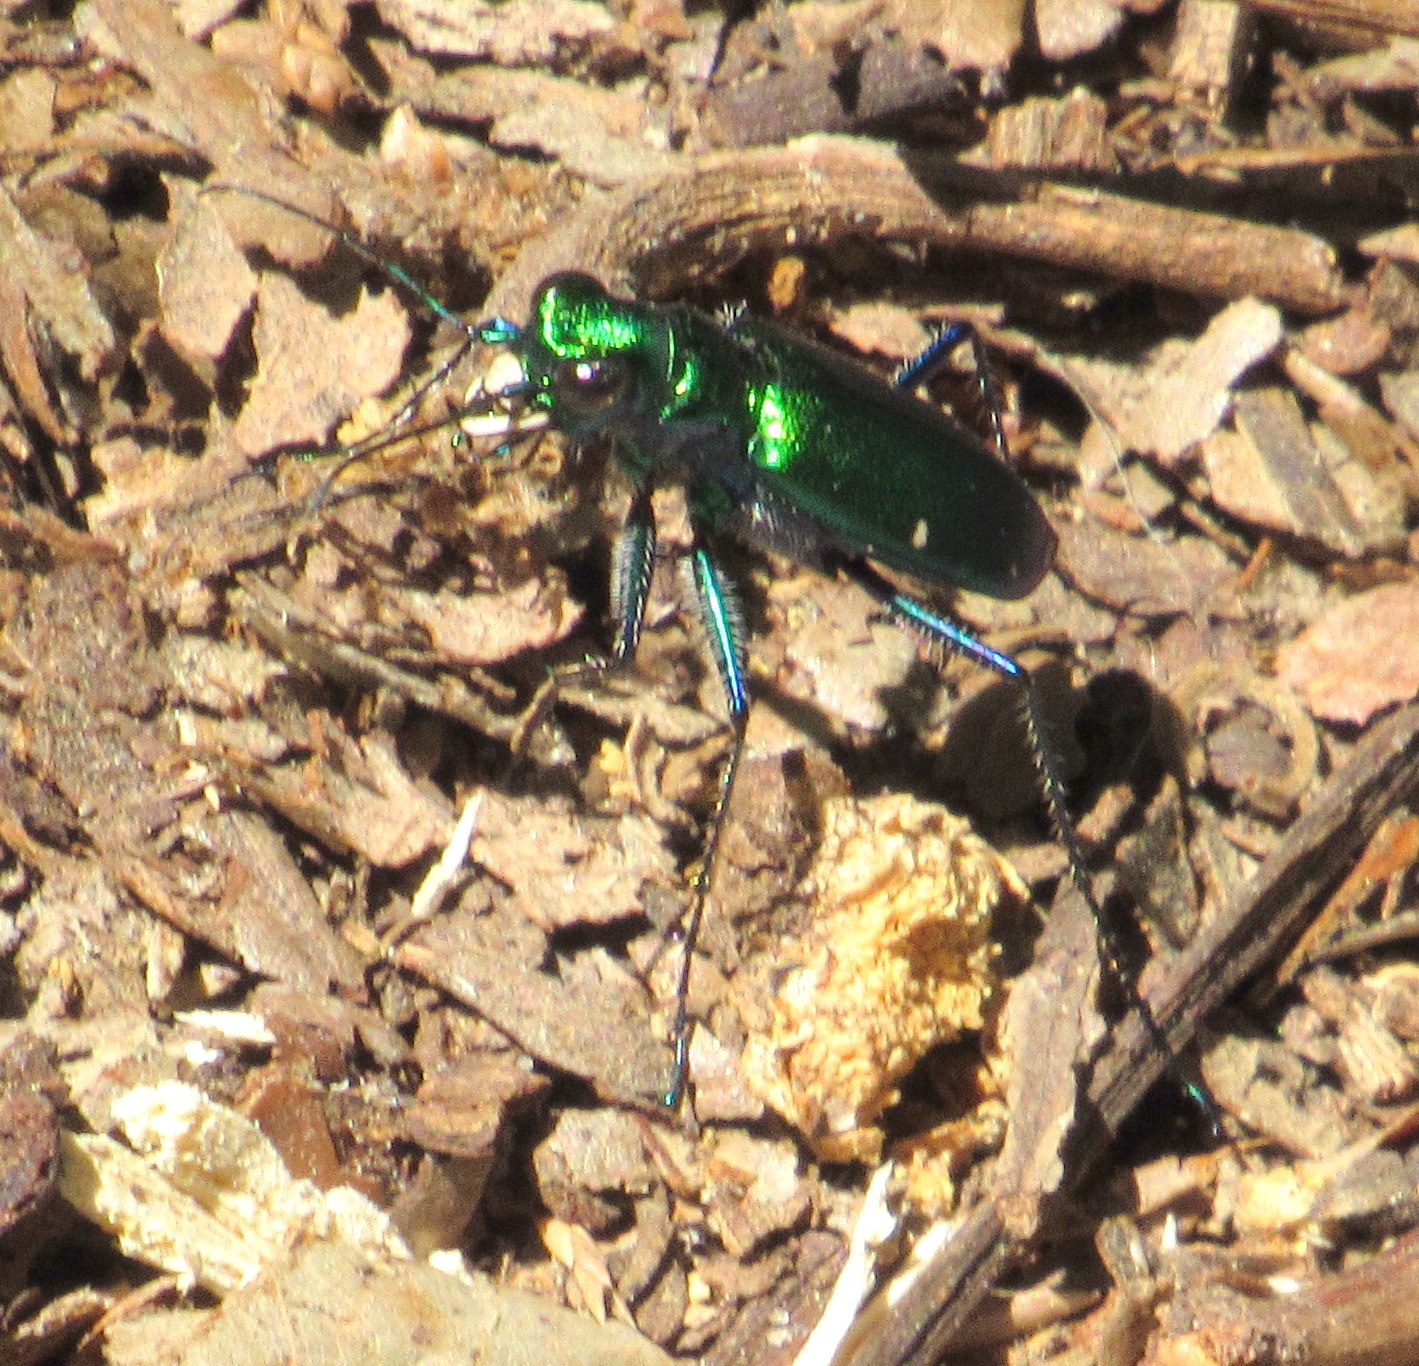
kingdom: Animalia
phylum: Arthropoda
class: Insecta
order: Coleoptera
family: Carabidae
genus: Cicindela
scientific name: Cicindela sexguttata
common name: Six-spotted tiger beetle
